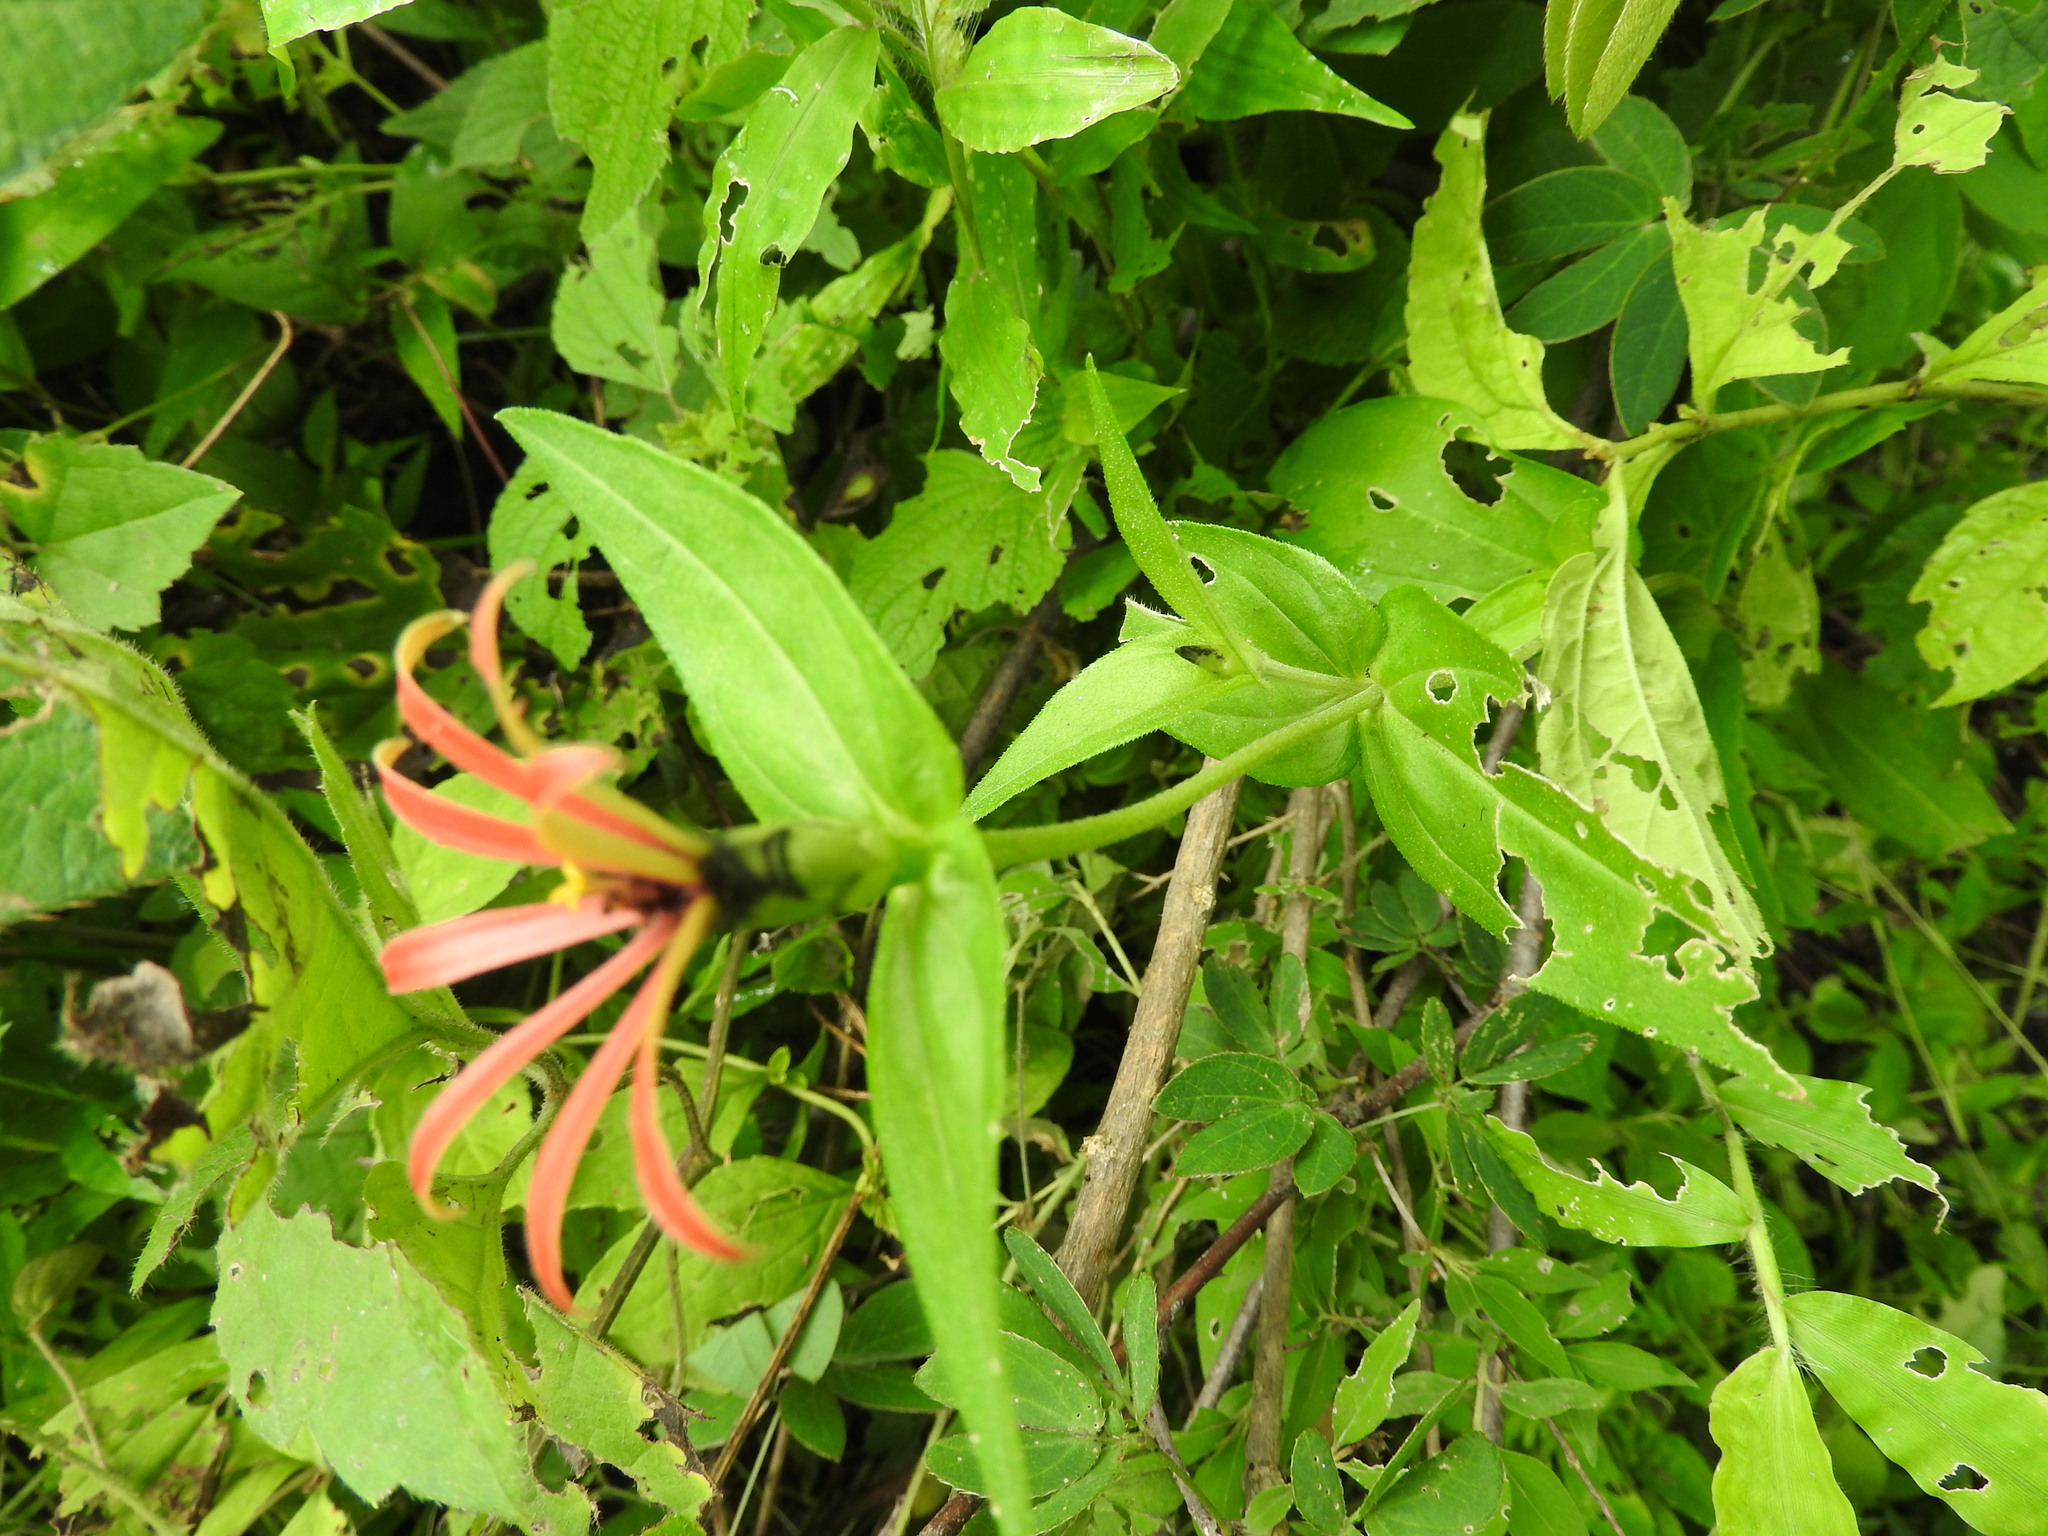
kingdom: Plantae
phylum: Tracheophyta
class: Magnoliopsida
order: Asterales
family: Asteraceae
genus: Zinnia
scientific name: Zinnia peruviana
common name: Peruvian zinnia
